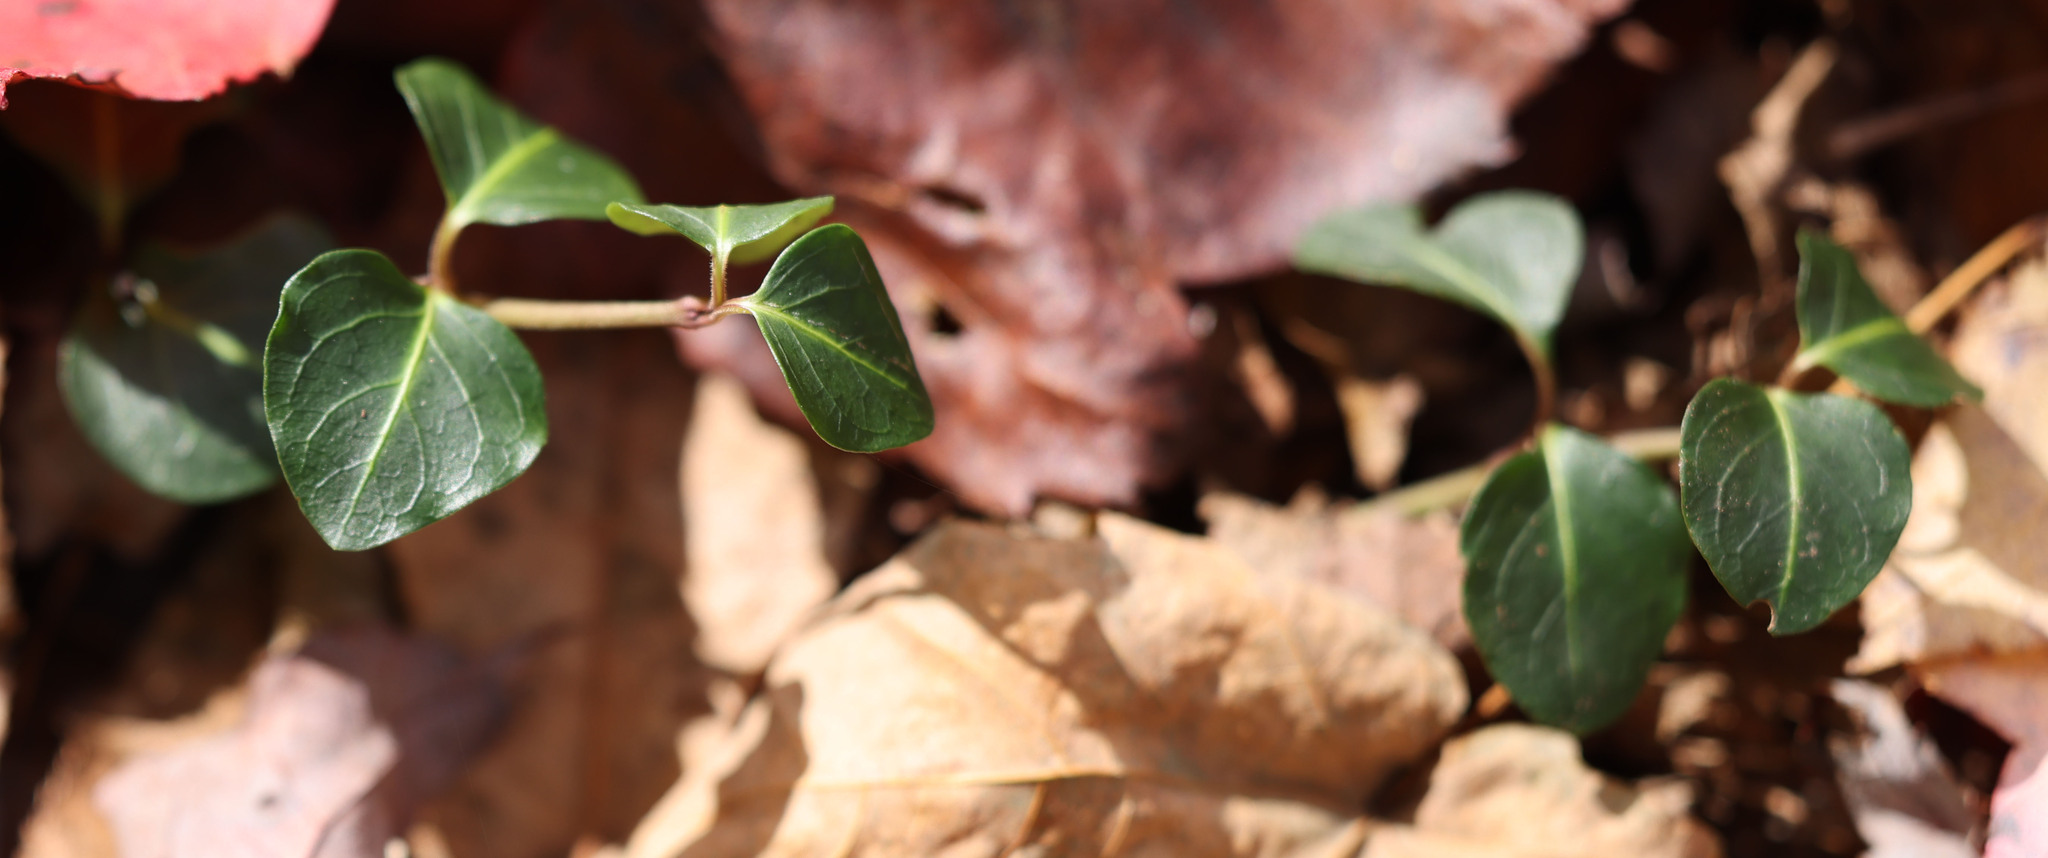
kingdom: Plantae
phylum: Tracheophyta
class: Magnoliopsida
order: Gentianales
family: Rubiaceae
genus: Mitchella
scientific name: Mitchella repens
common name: Partridge-berry
